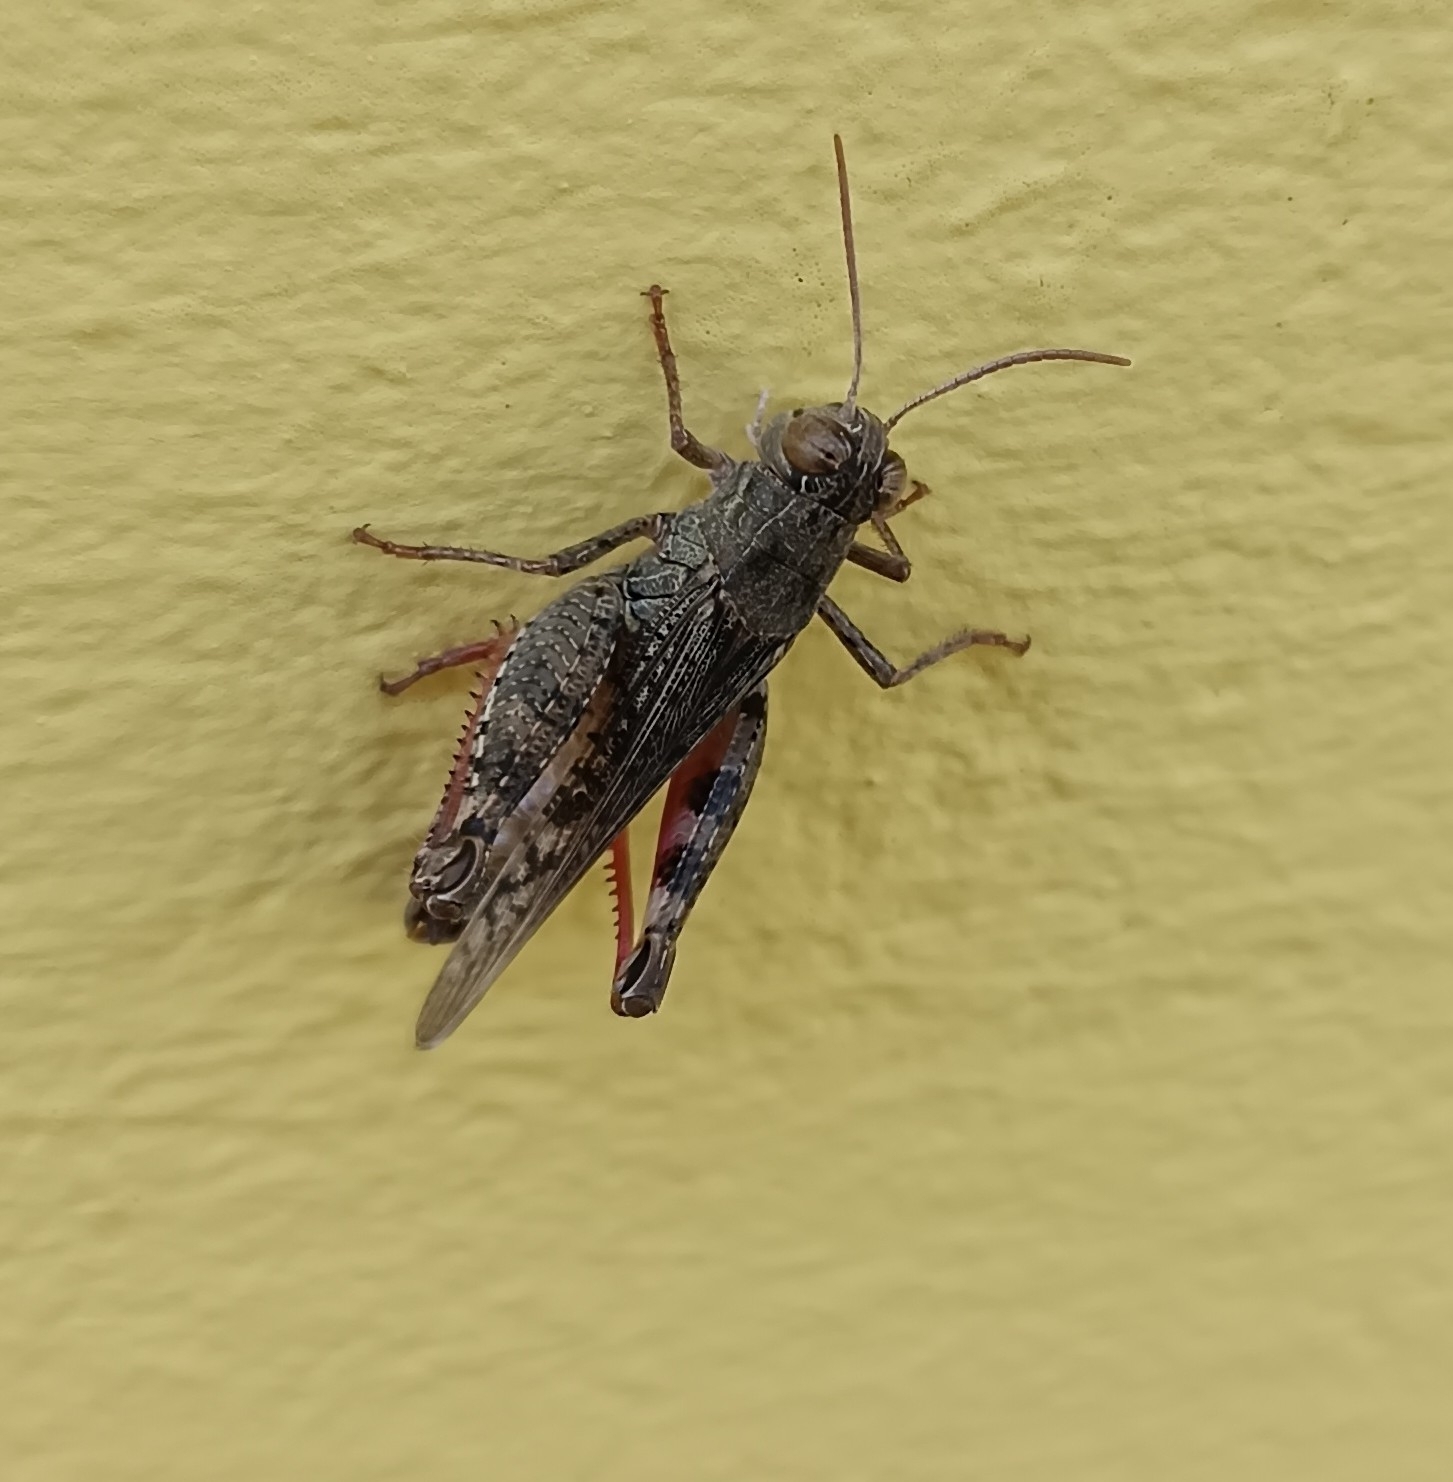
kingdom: Animalia
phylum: Arthropoda
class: Insecta
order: Orthoptera
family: Acrididae
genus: Calliptamus
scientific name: Calliptamus italicus
